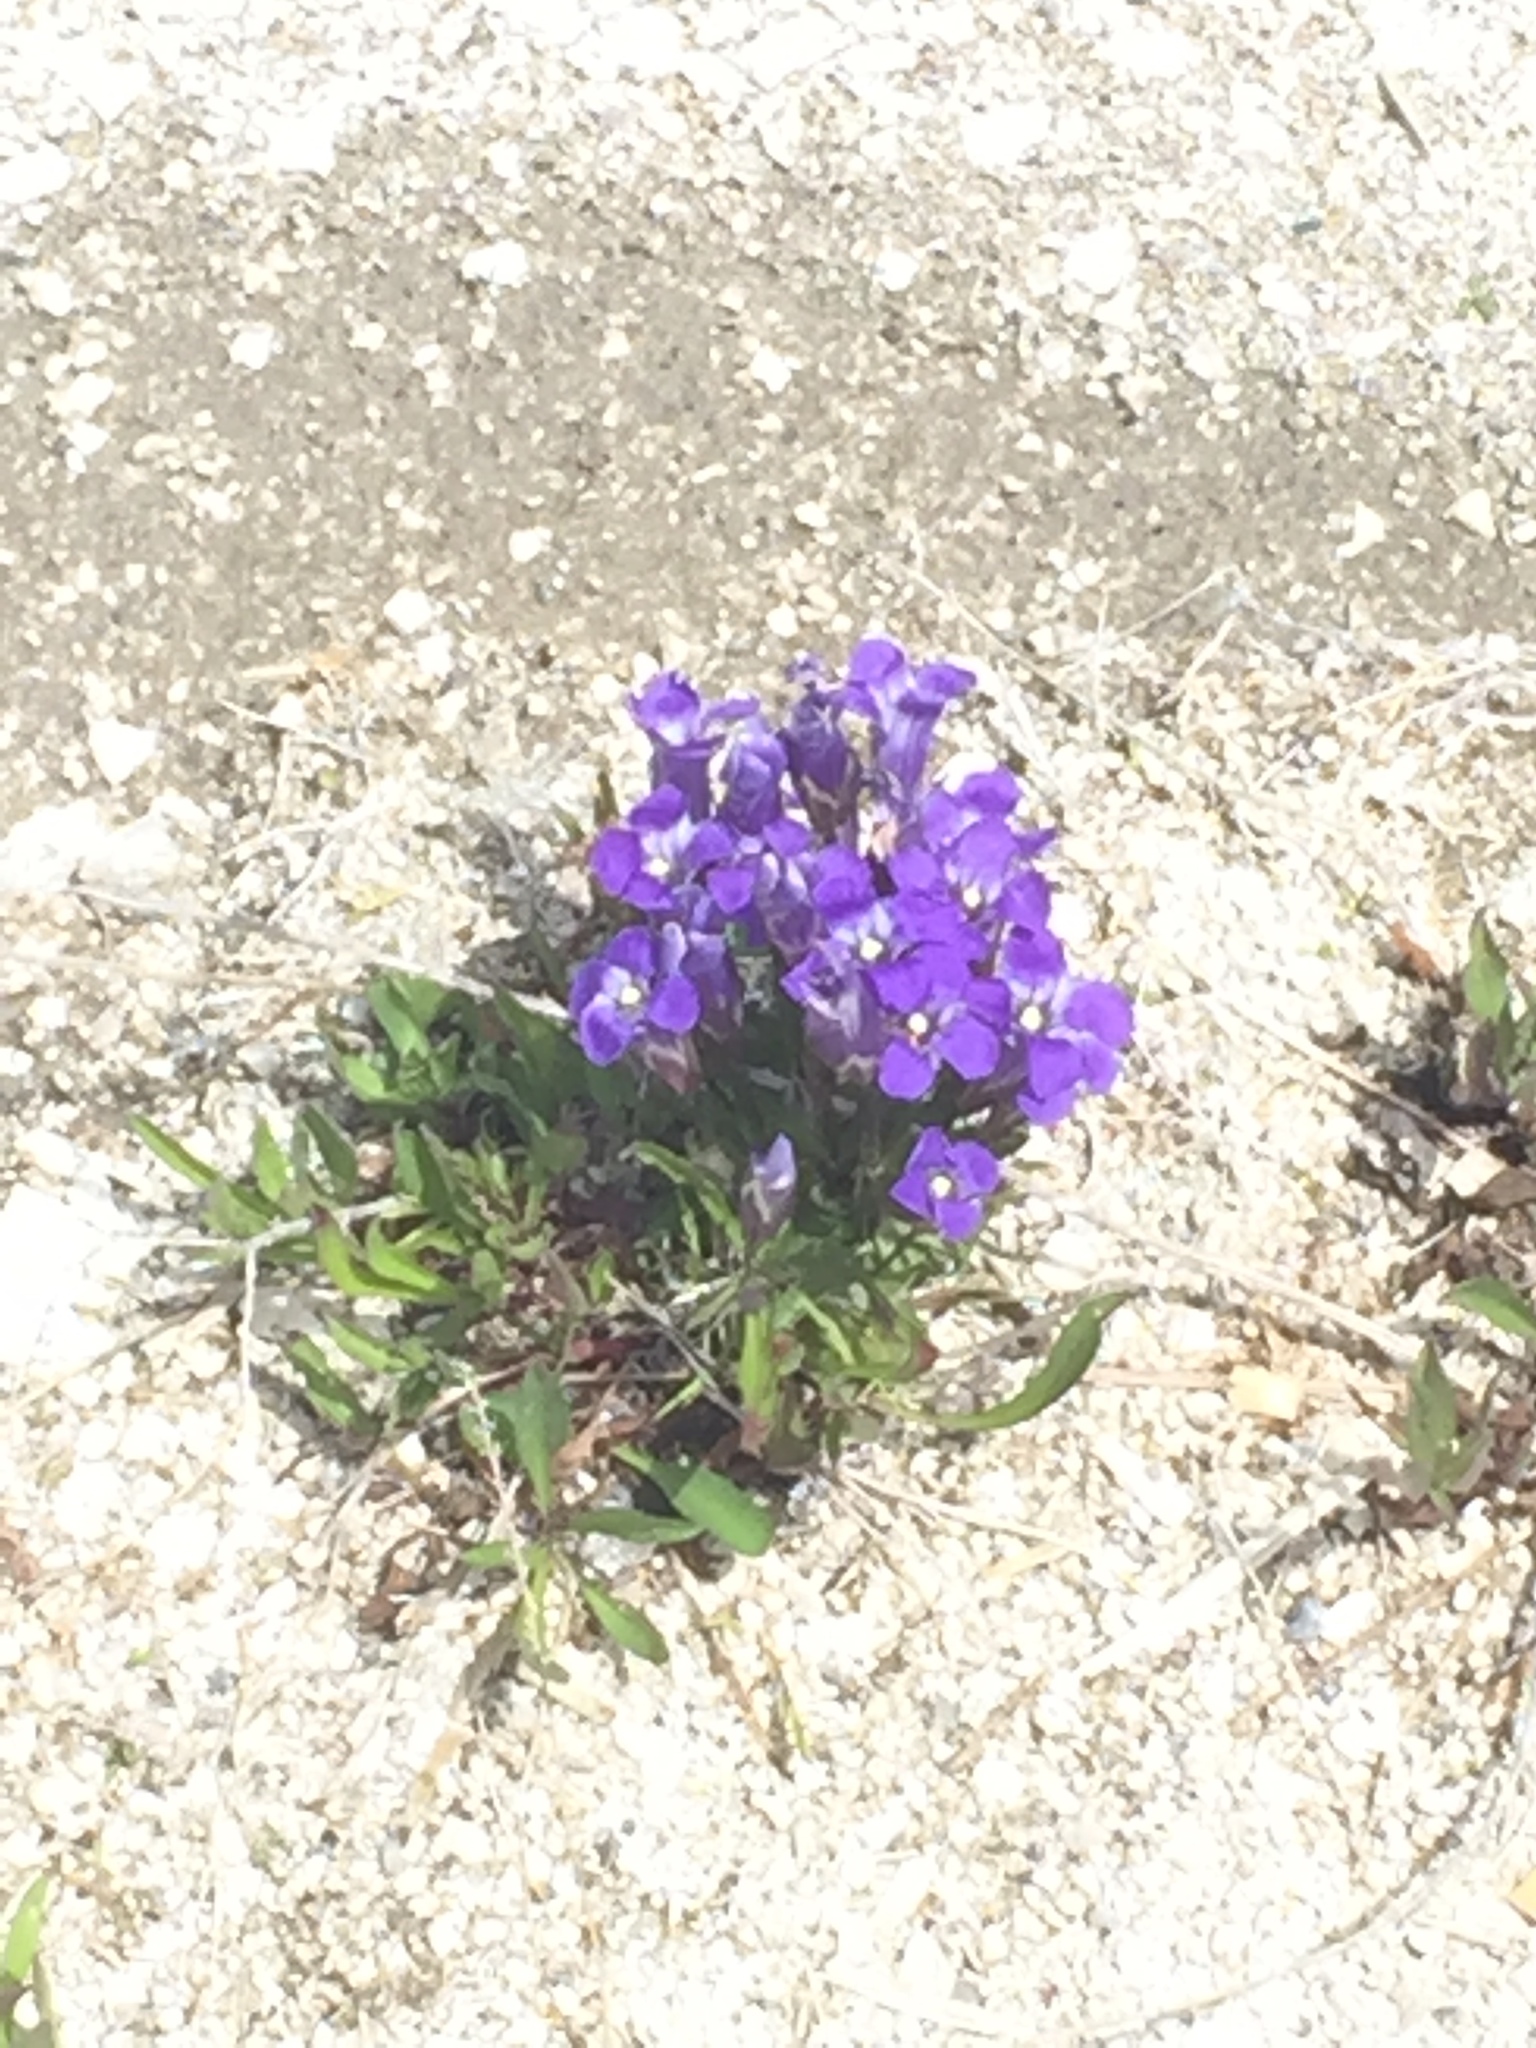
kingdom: Plantae
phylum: Tracheophyta
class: Magnoliopsida
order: Gentianales
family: Gentianaceae
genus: Gentianopsis
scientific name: Gentianopsis thermalis
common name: Rocky mountain fringed-gentian
